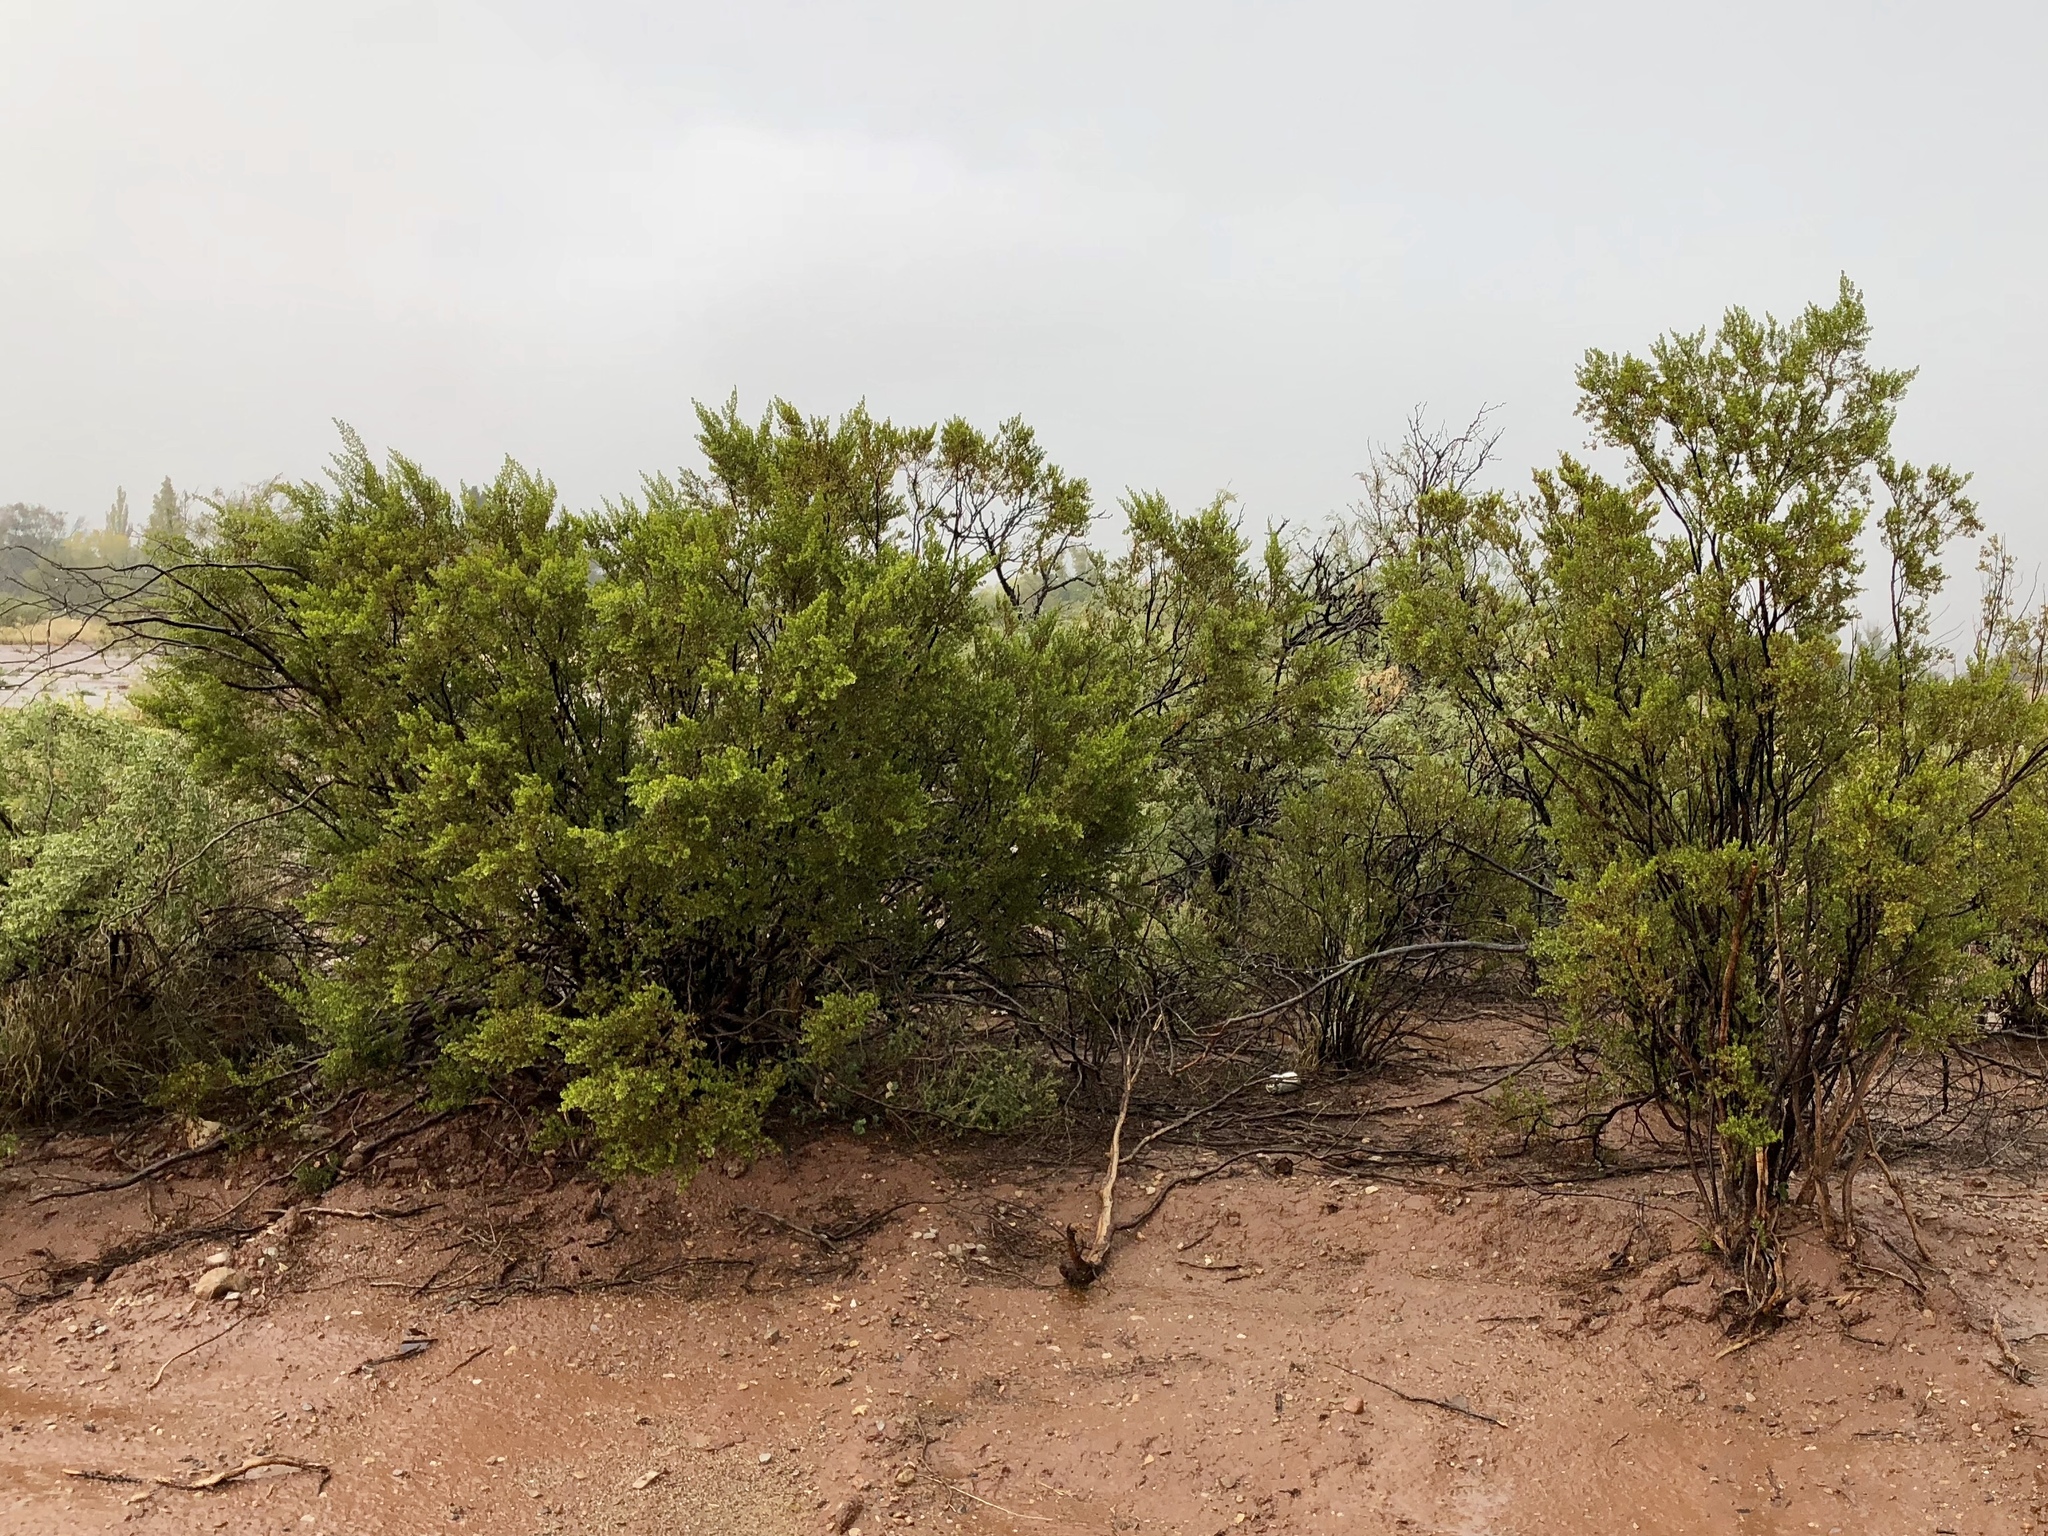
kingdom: Plantae
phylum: Tracheophyta
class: Magnoliopsida
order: Zygophyllales
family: Zygophyllaceae
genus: Larrea
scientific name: Larrea tridentata
